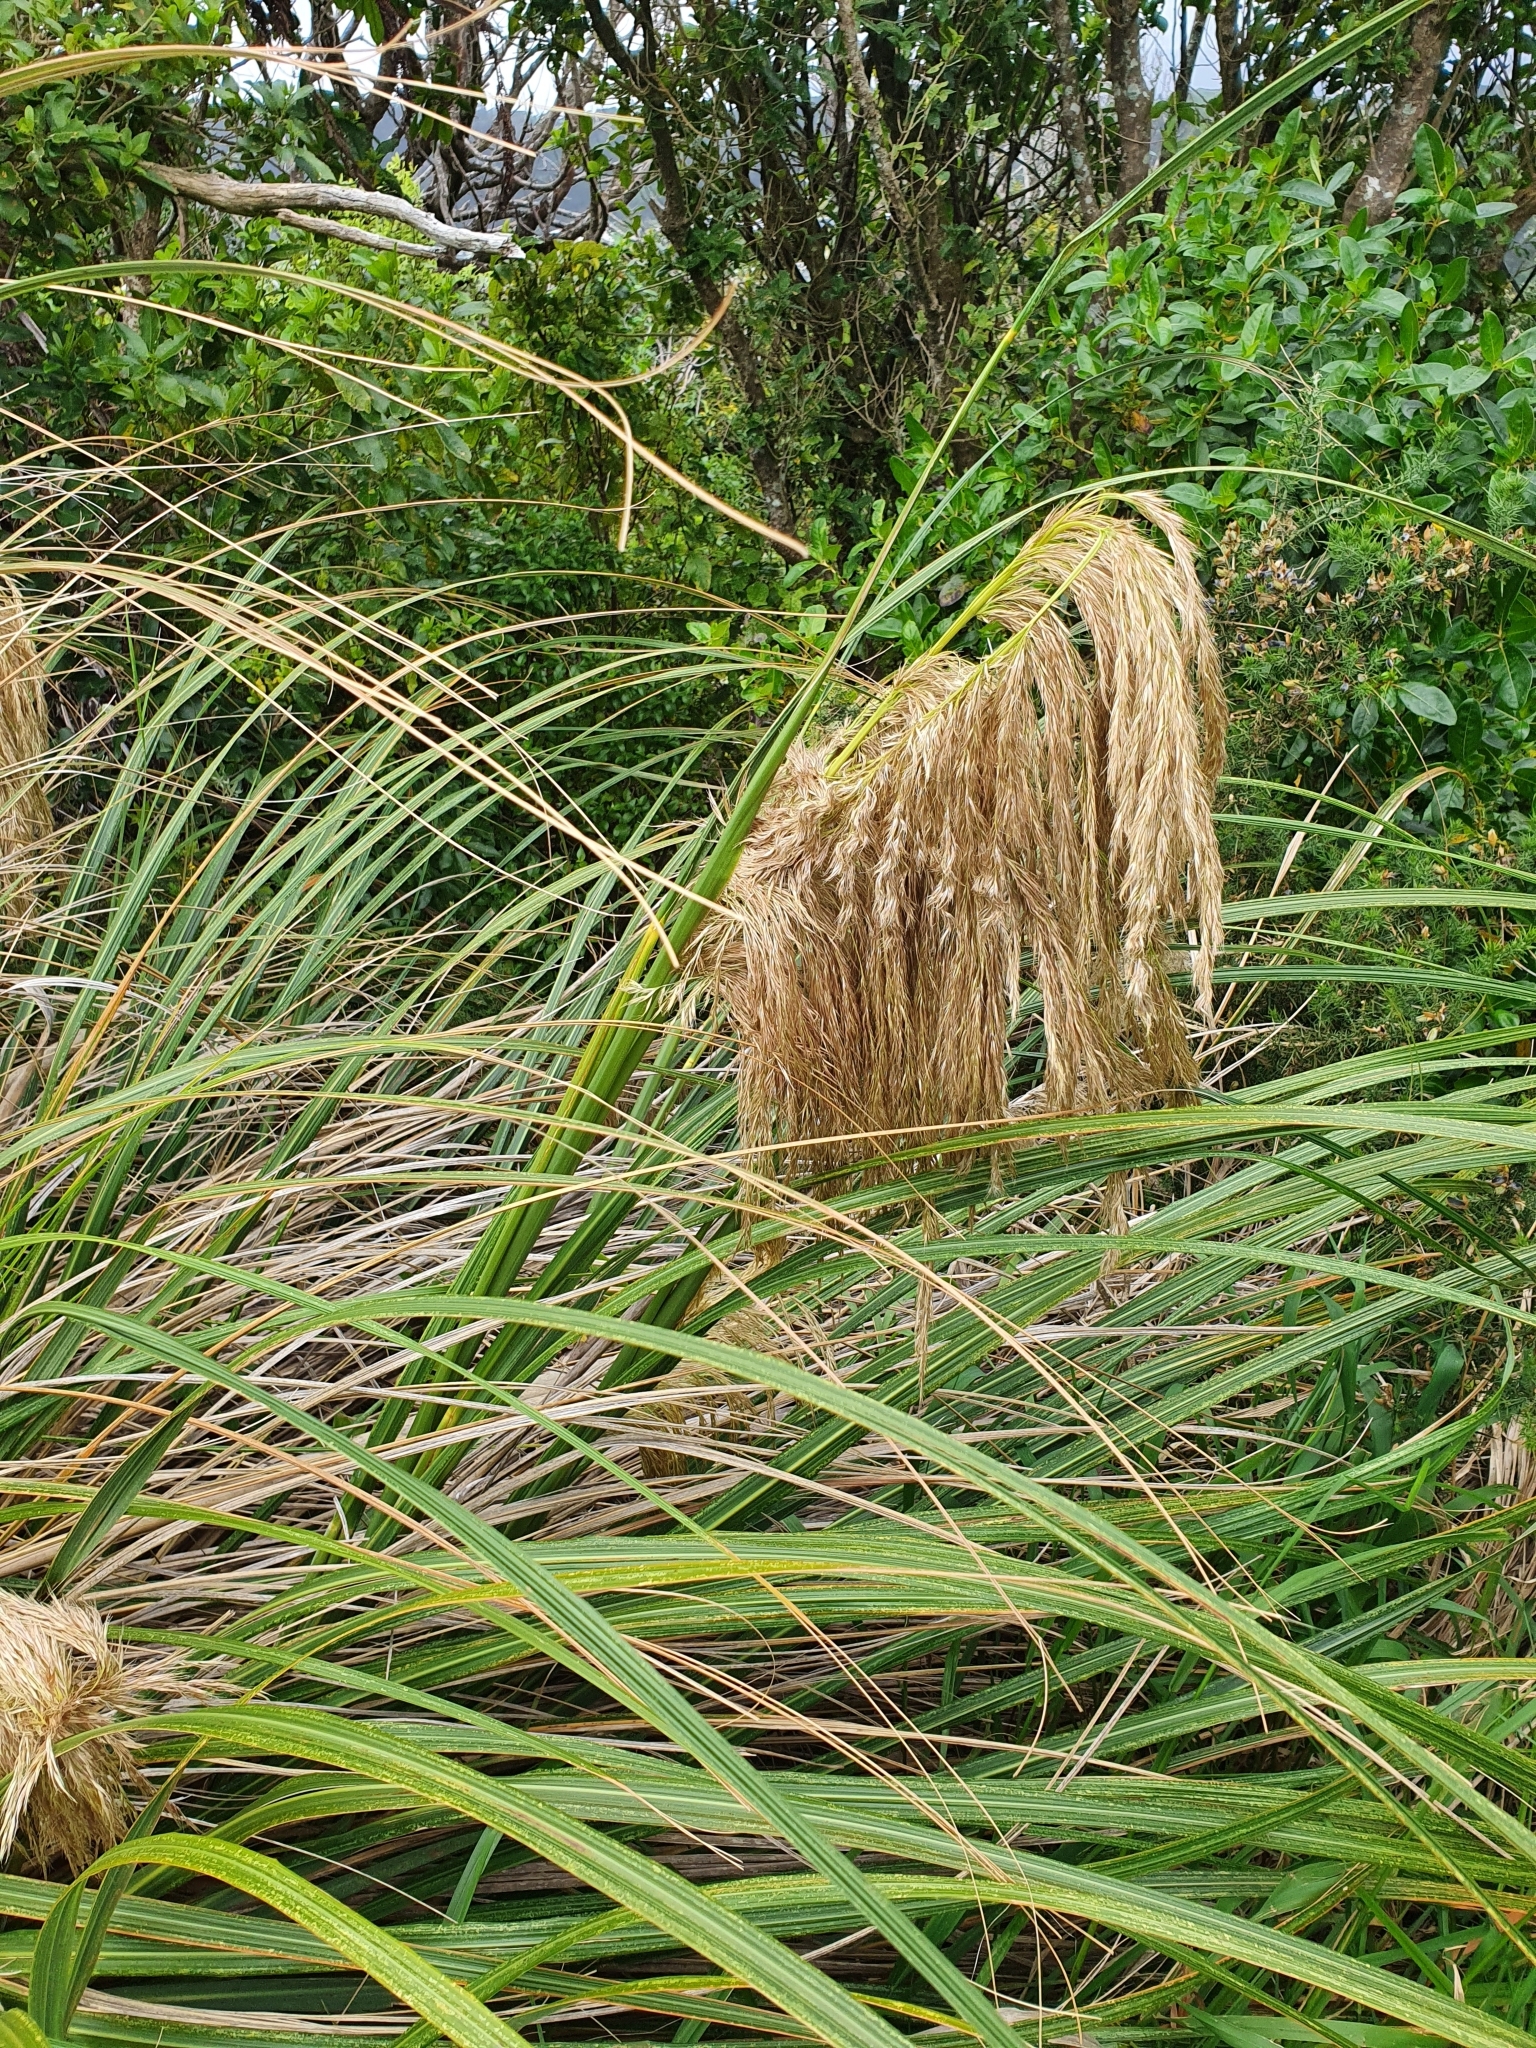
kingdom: Plantae
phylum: Tracheophyta
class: Liliopsida
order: Poales
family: Poaceae
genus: Austroderia
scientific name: Austroderia fulvida
